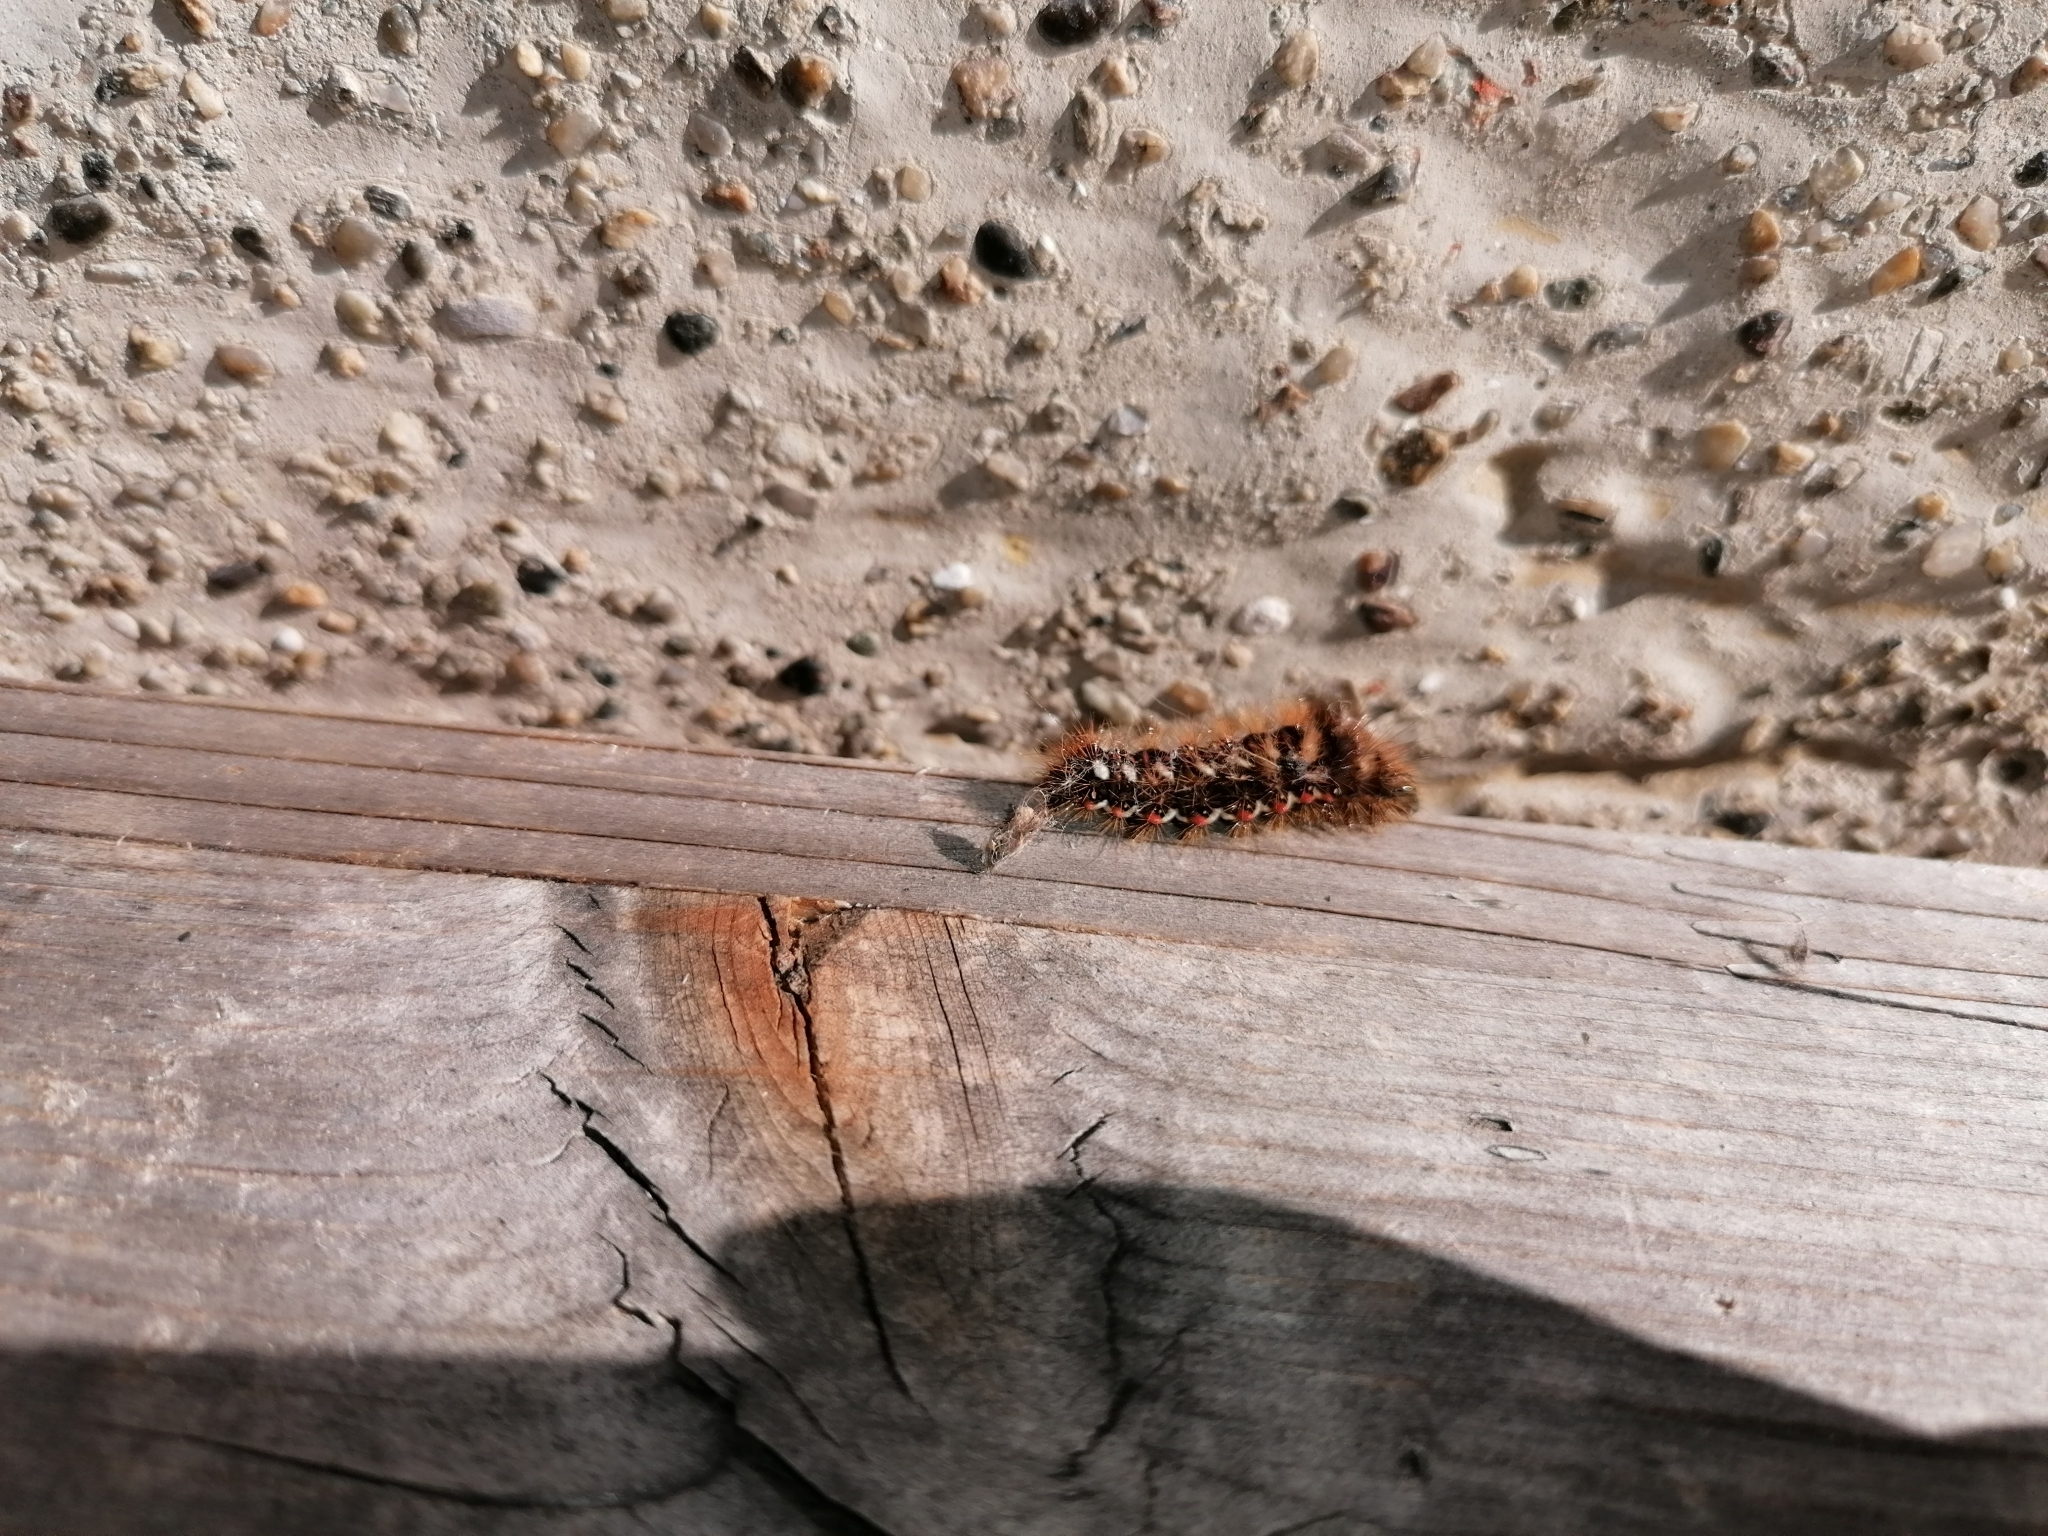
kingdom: Animalia
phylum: Arthropoda
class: Insecta
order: Lepidoptera
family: Noctuidae
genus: Acronicta
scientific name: Acronicta rumicis
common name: Knot grass
